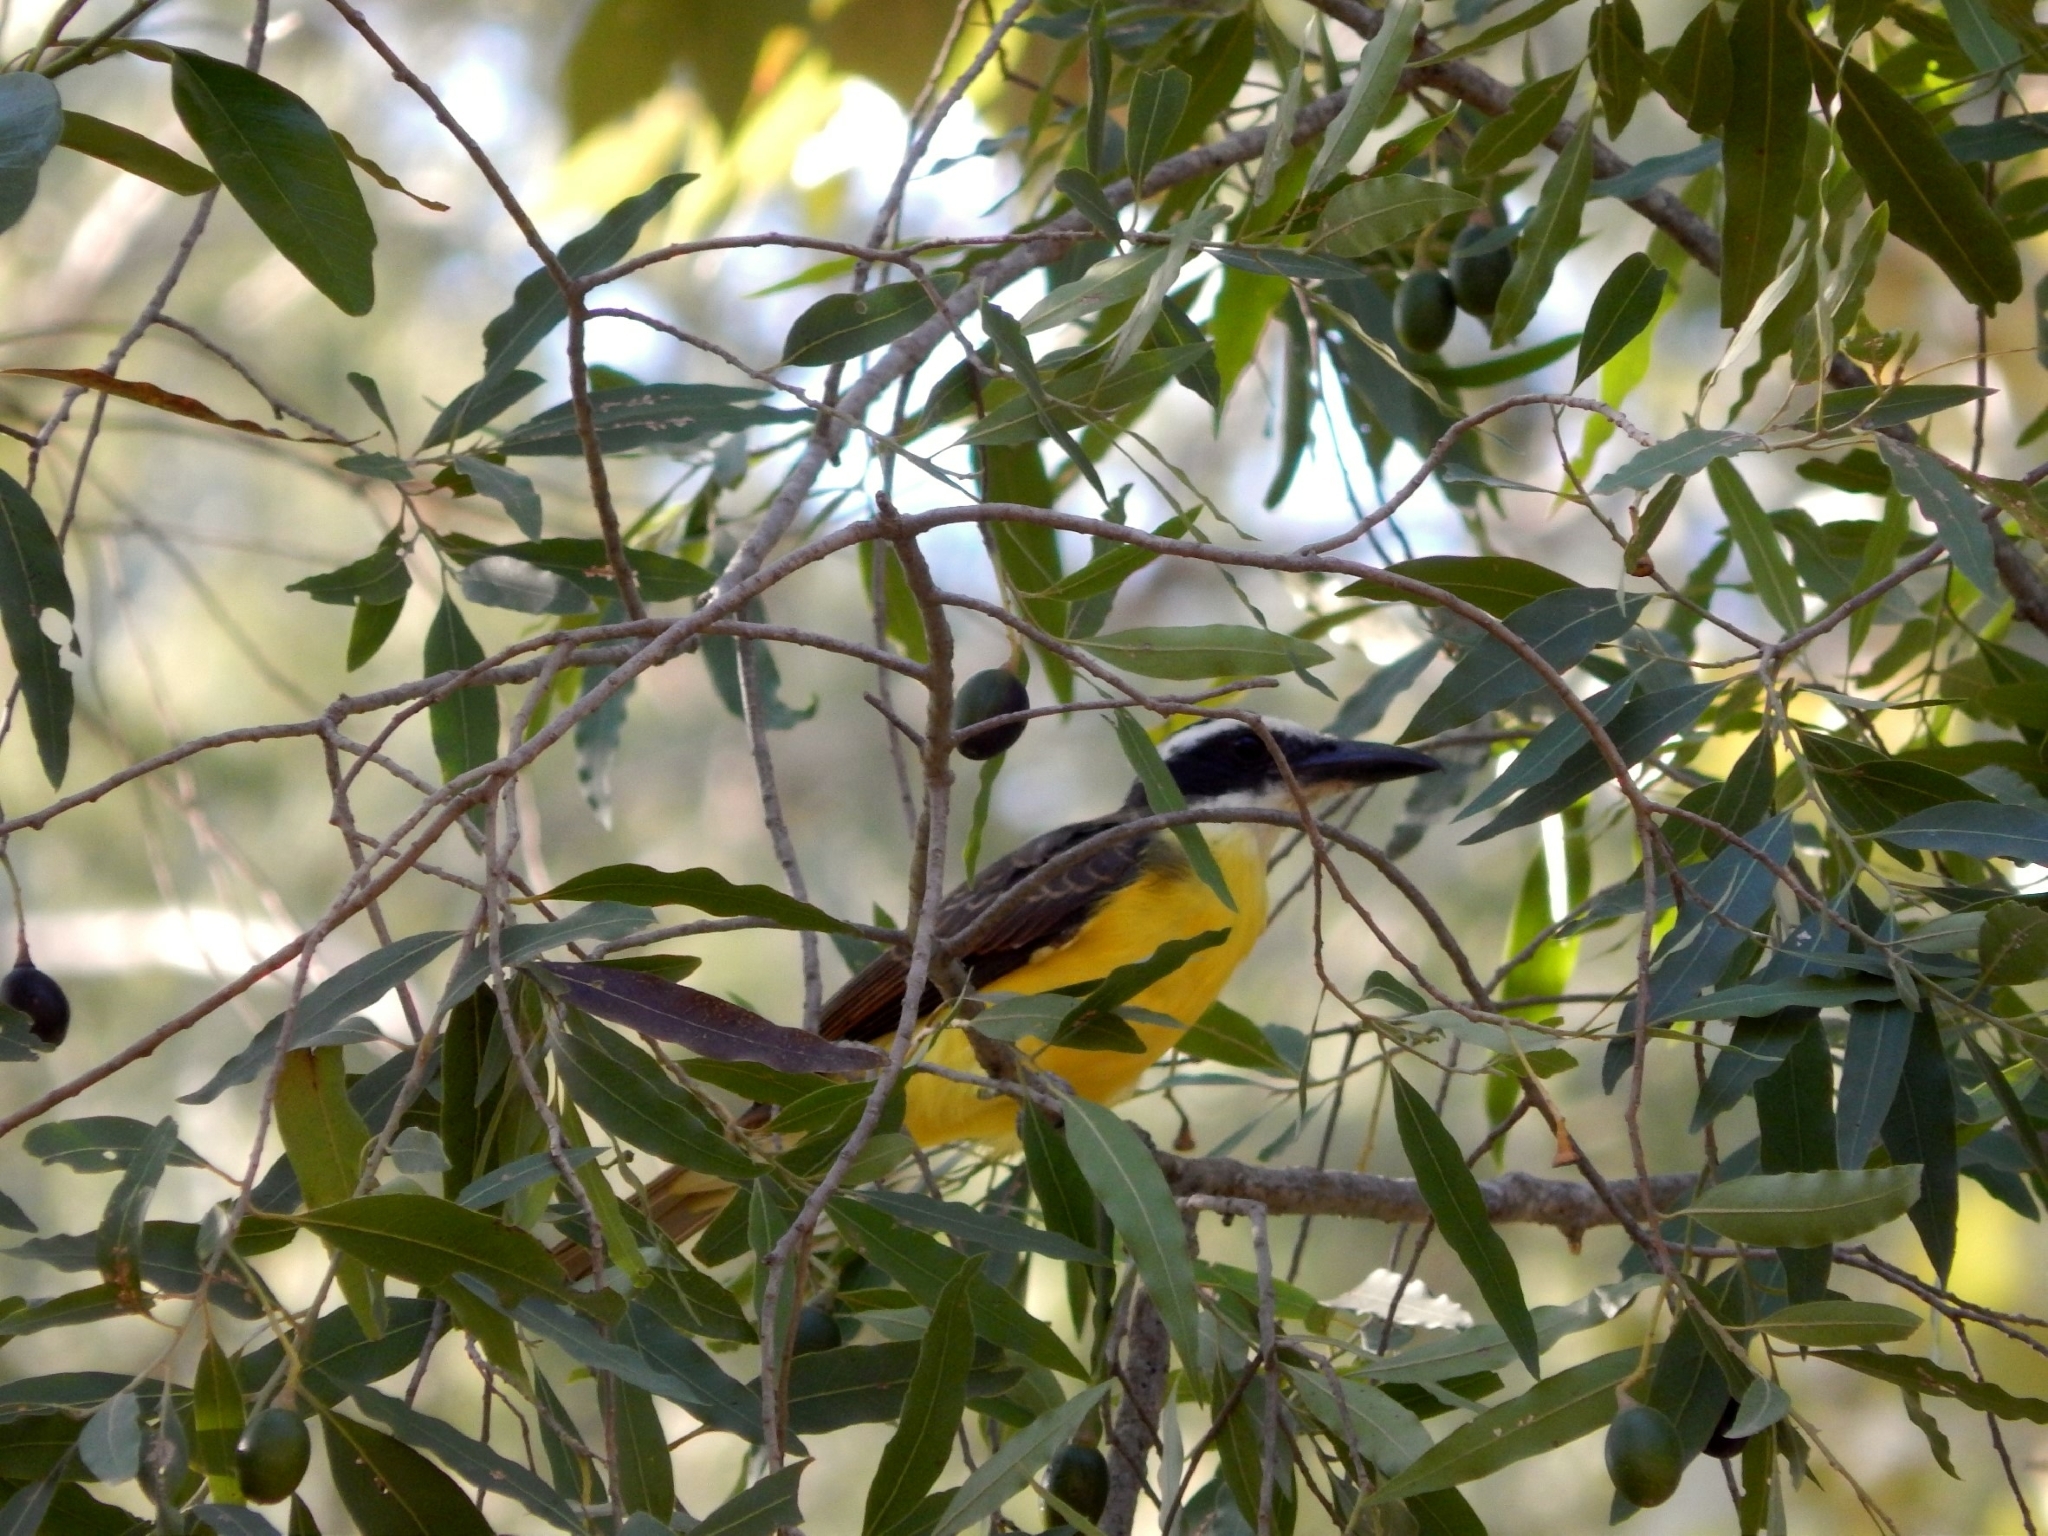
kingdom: Animalia
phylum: Chordata
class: Aves
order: Passeriformes
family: Tyrannidae
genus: Megarynchus
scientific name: Megarynchus pitangua
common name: Boat-billed flycatcher
